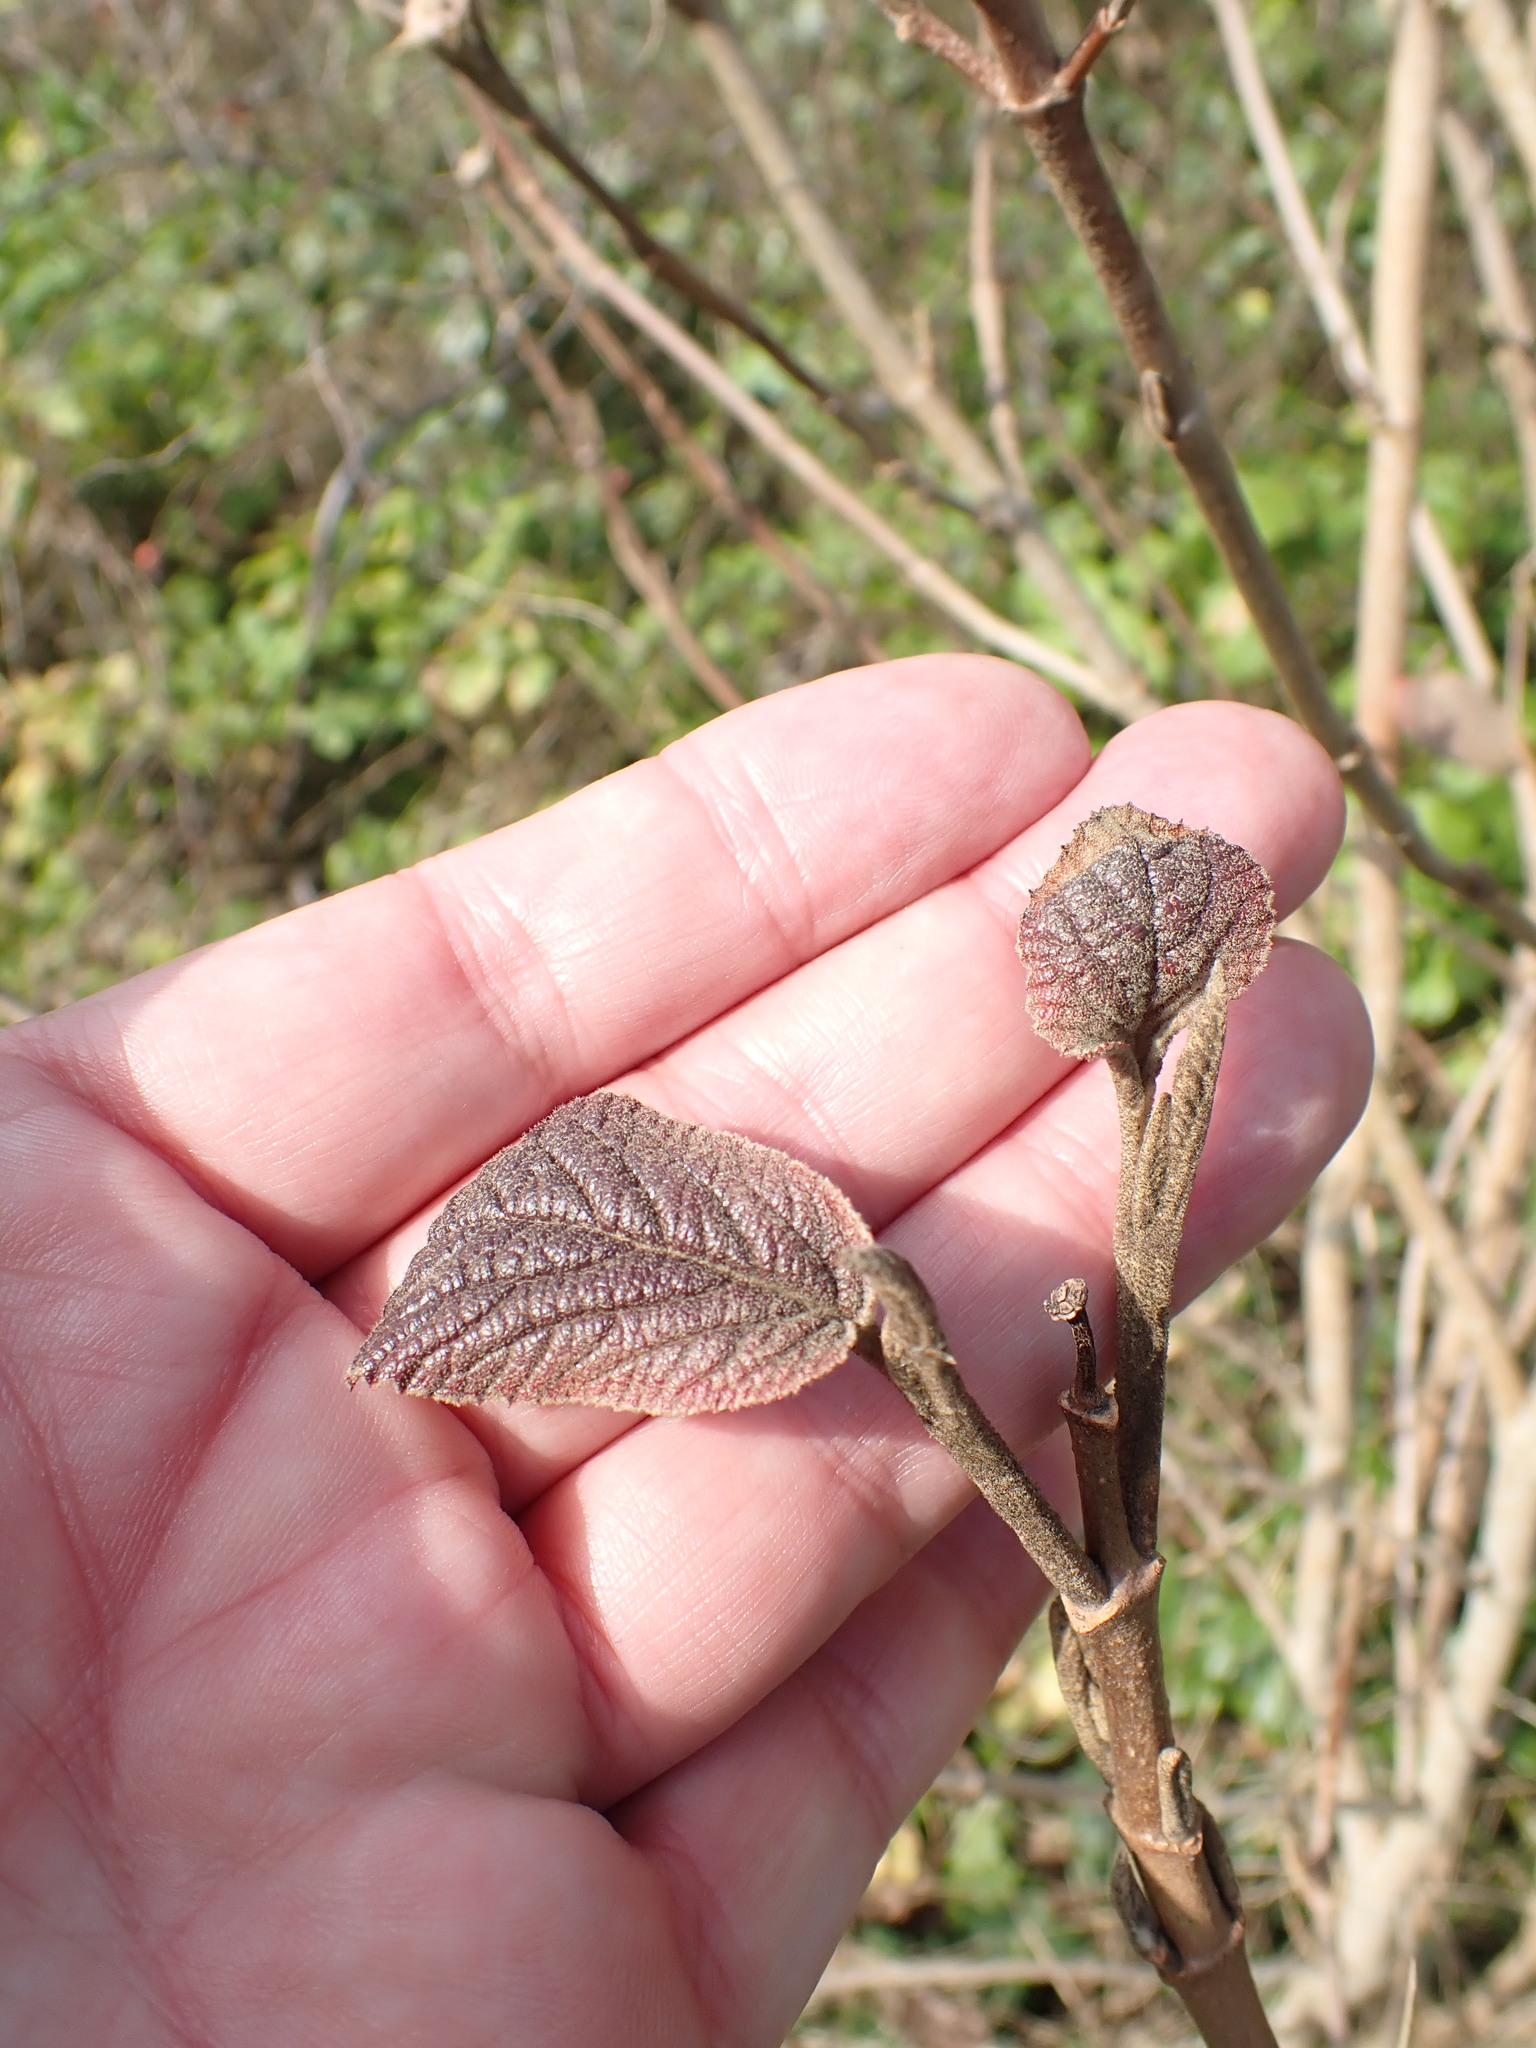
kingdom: Plantae
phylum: Tracheophyta
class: Magnoliopsida
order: Dipsacales
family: Viburnaceae
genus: Viburnum
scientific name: Viburnum lantana
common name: Wayfaring tree
